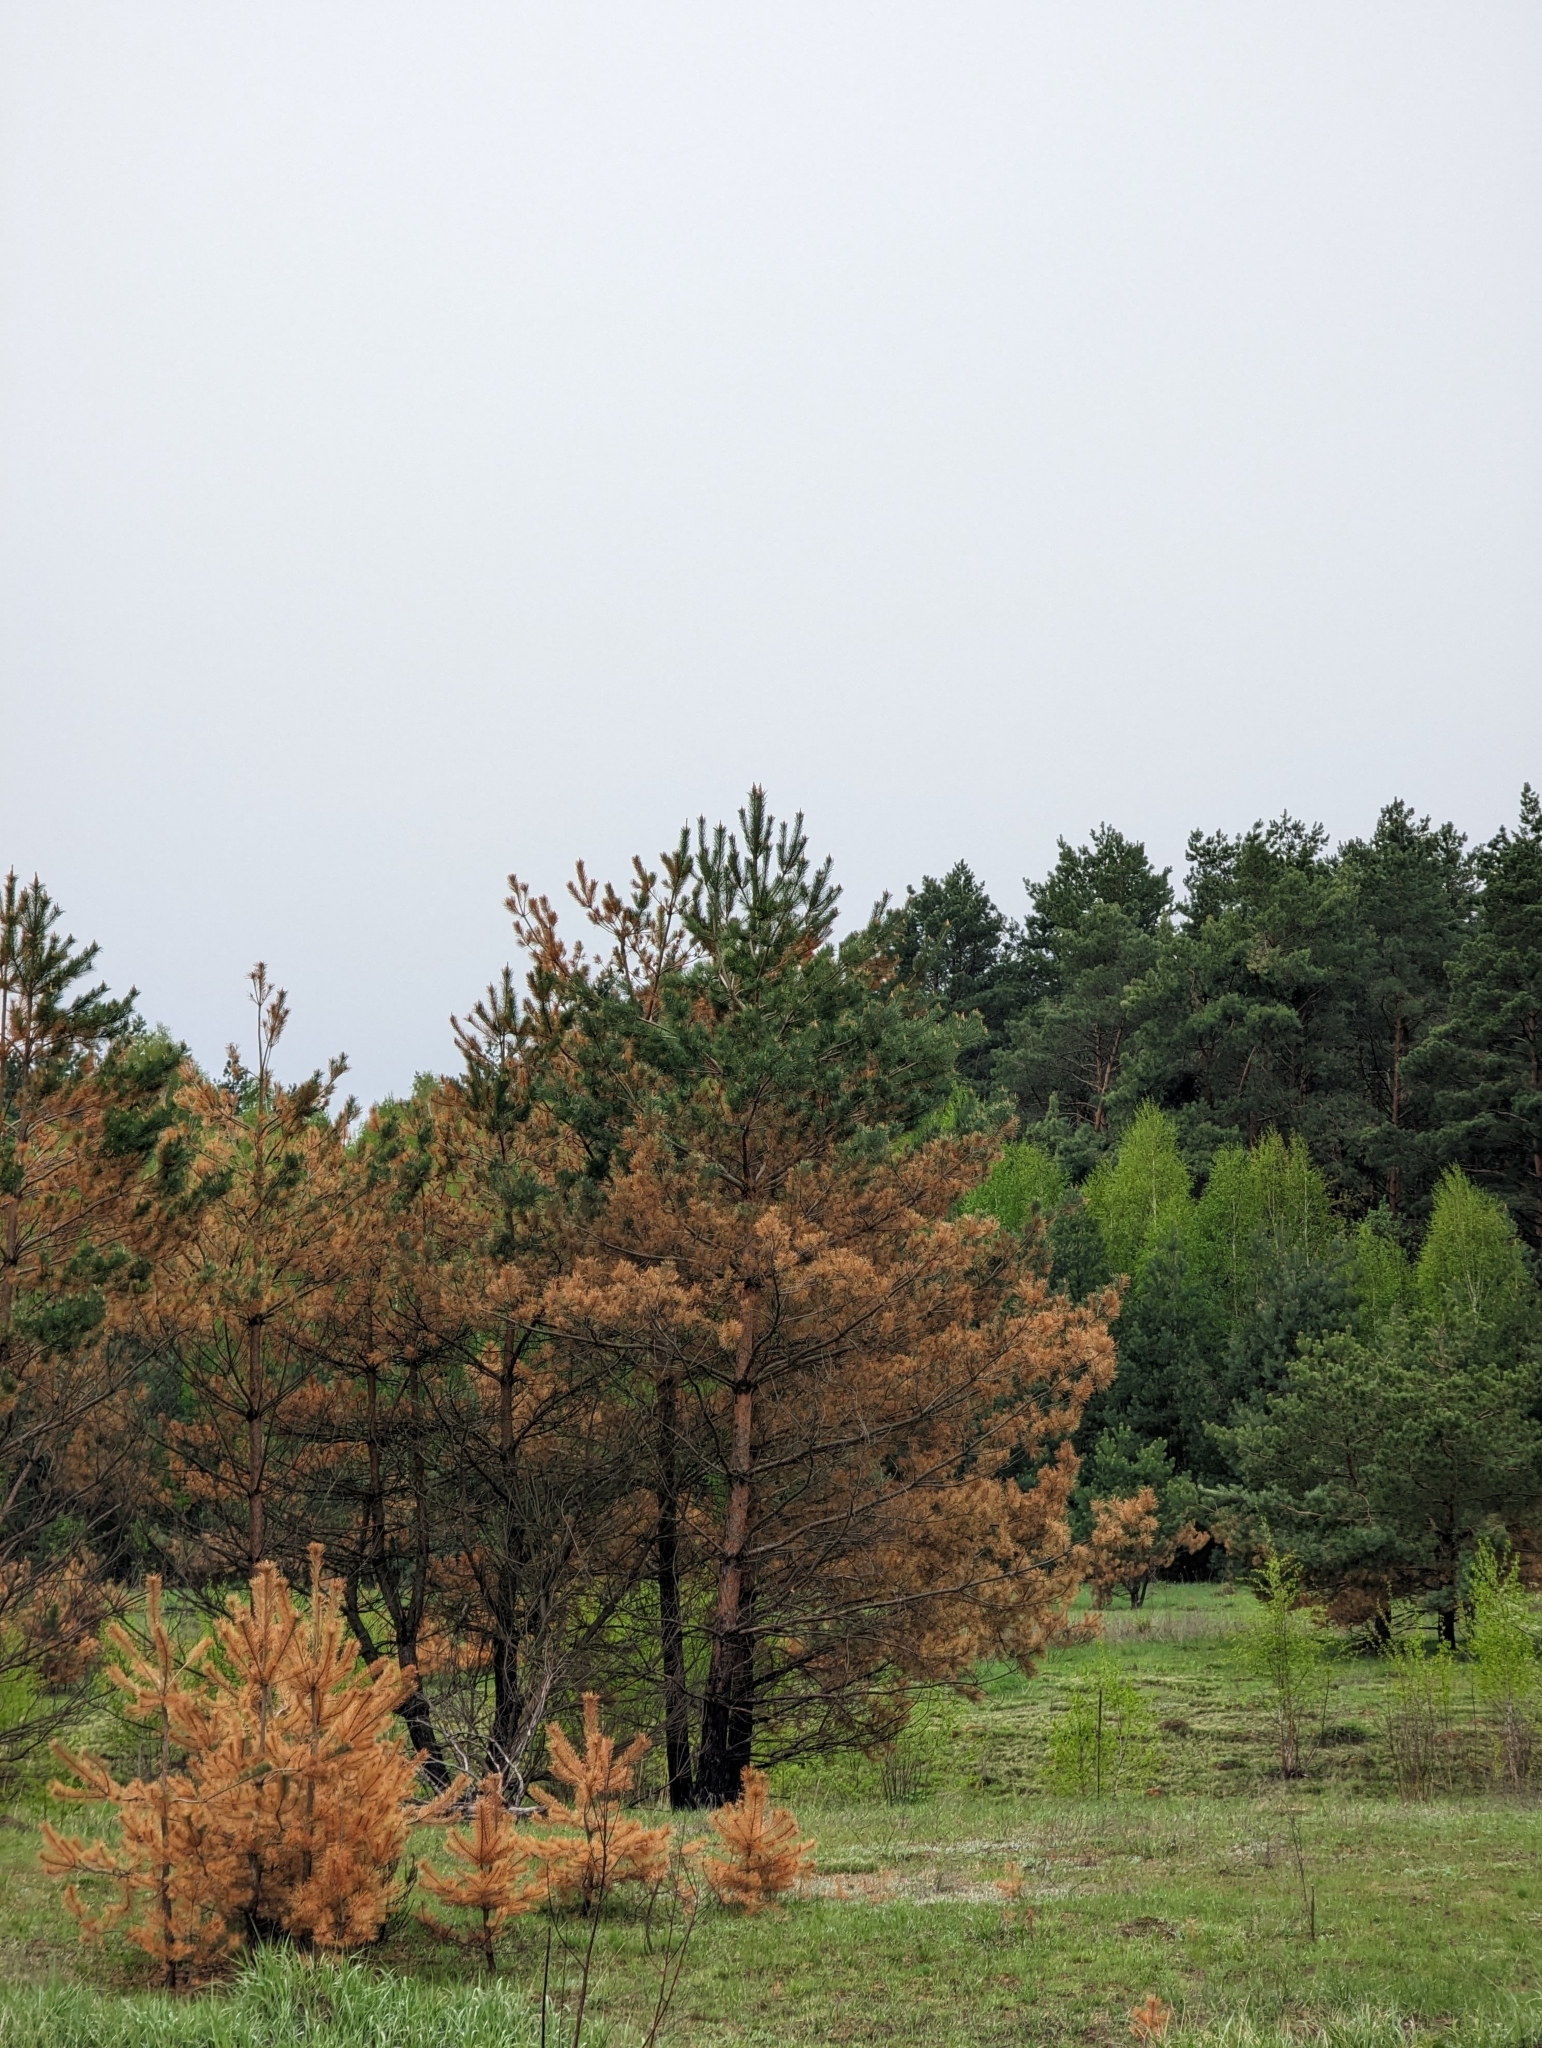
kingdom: Plantae
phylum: Tracheophyta
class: Pinopsida
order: Pinales
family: Pinaceae
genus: Pinus
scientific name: Pinus sylvestris
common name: Scots pine
